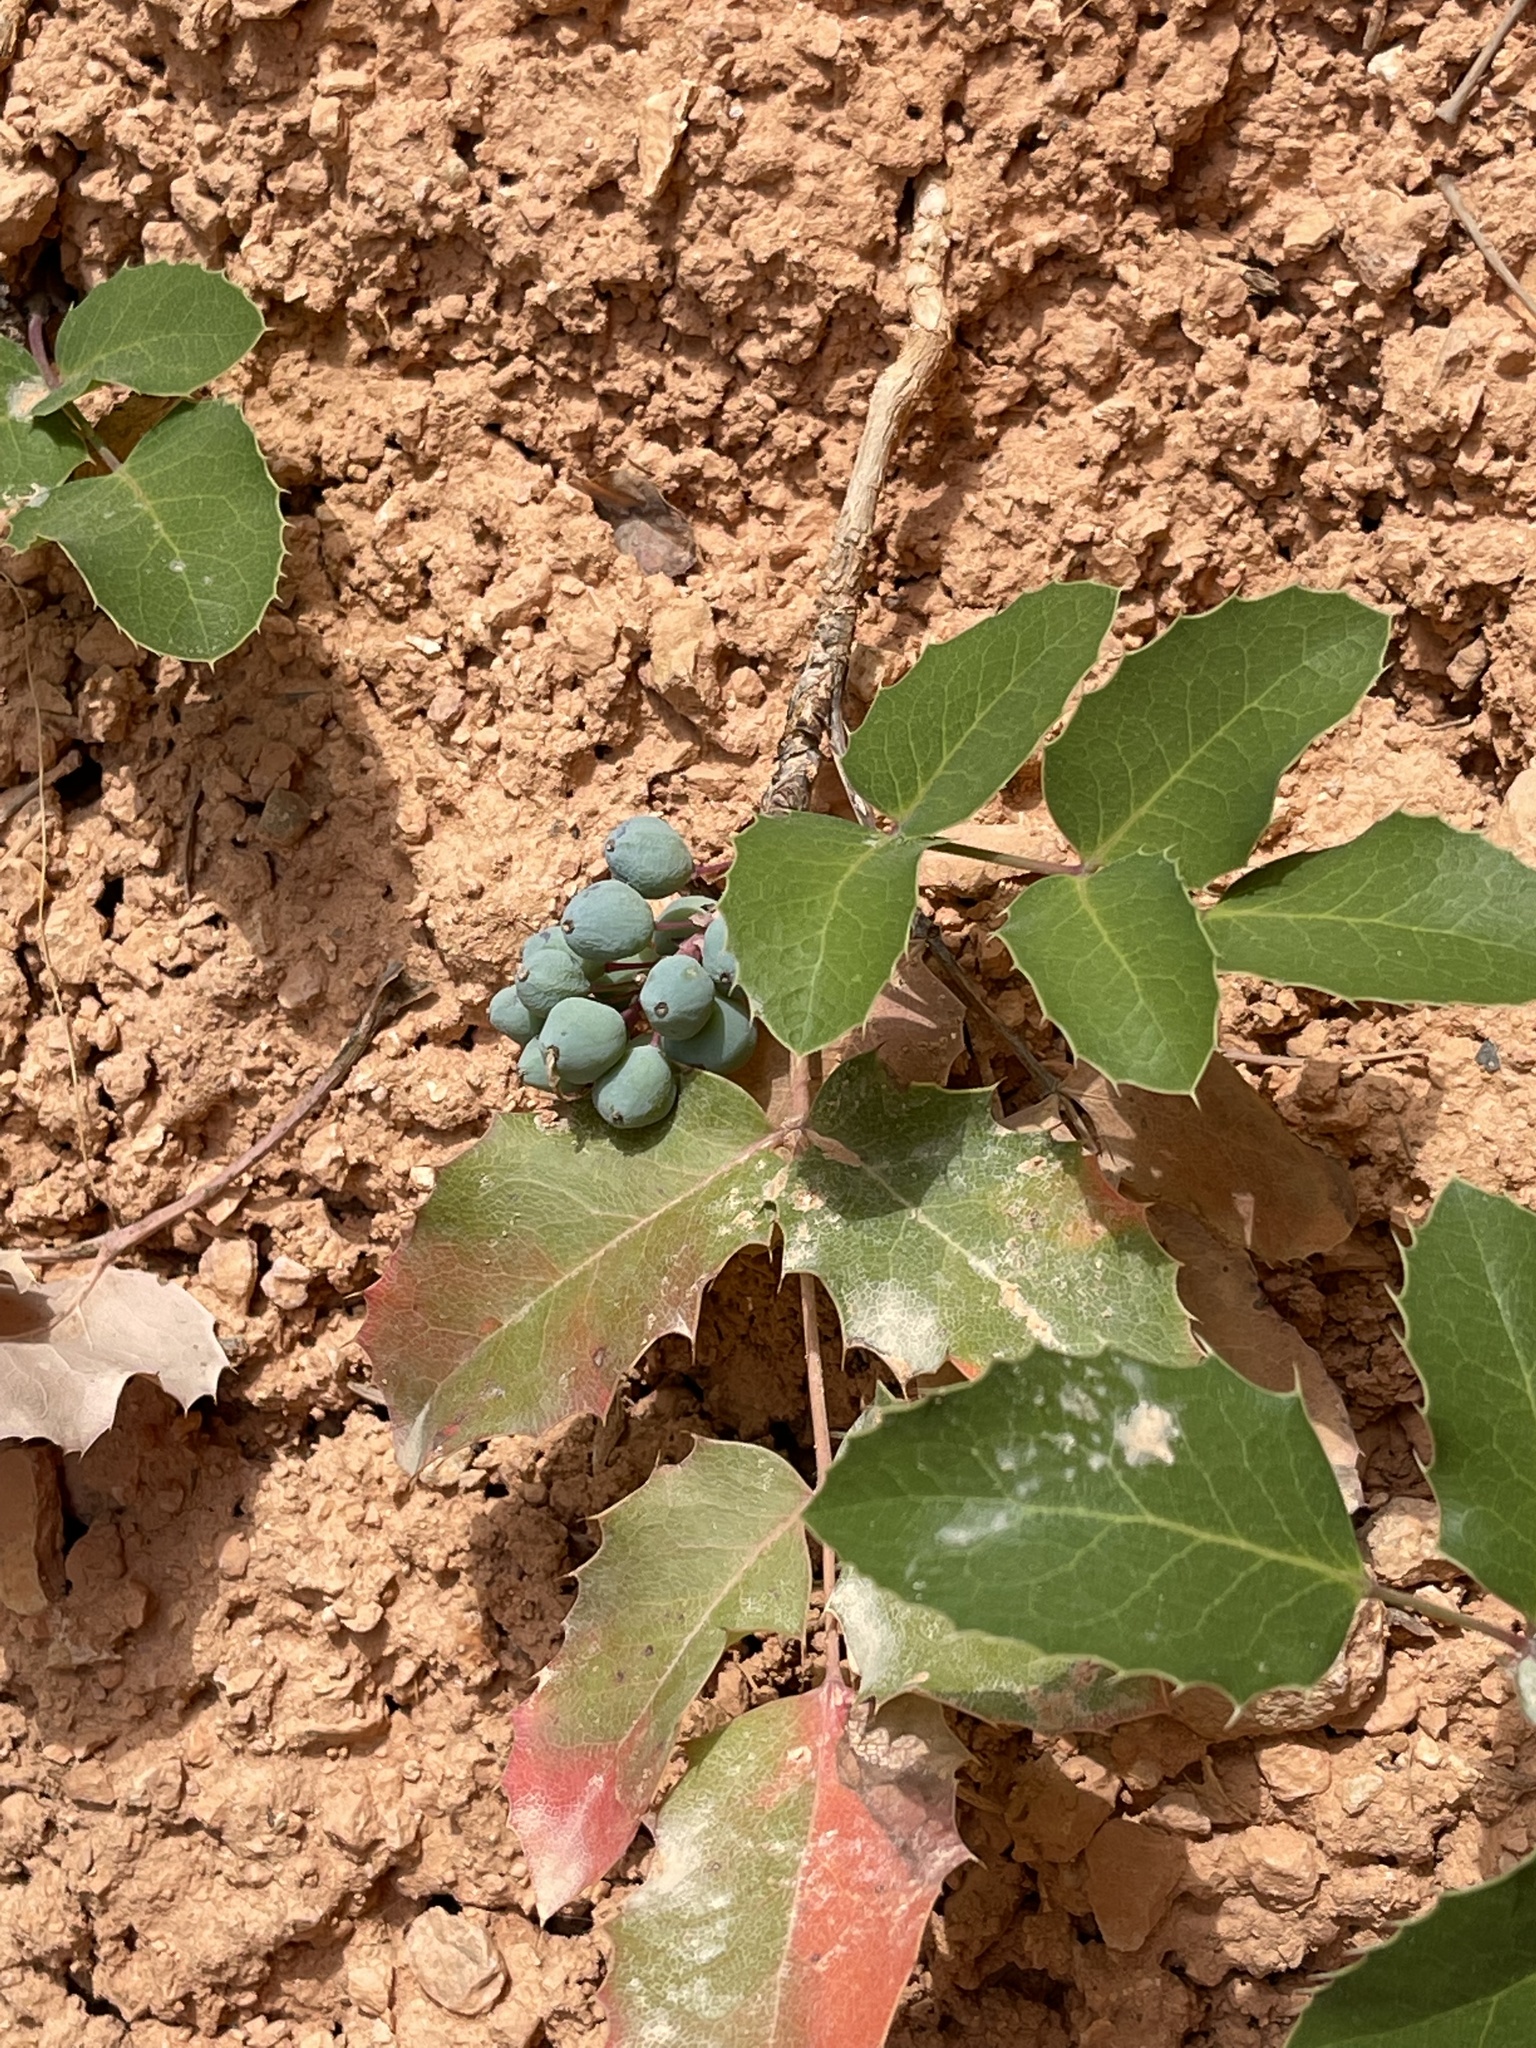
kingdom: Plantae
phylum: Tracheophyta
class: Magnoliopsida
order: Ranunculales
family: Berberidaceae
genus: Mahonia
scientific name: Mahonia repens
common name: Creeping oregon-grape
